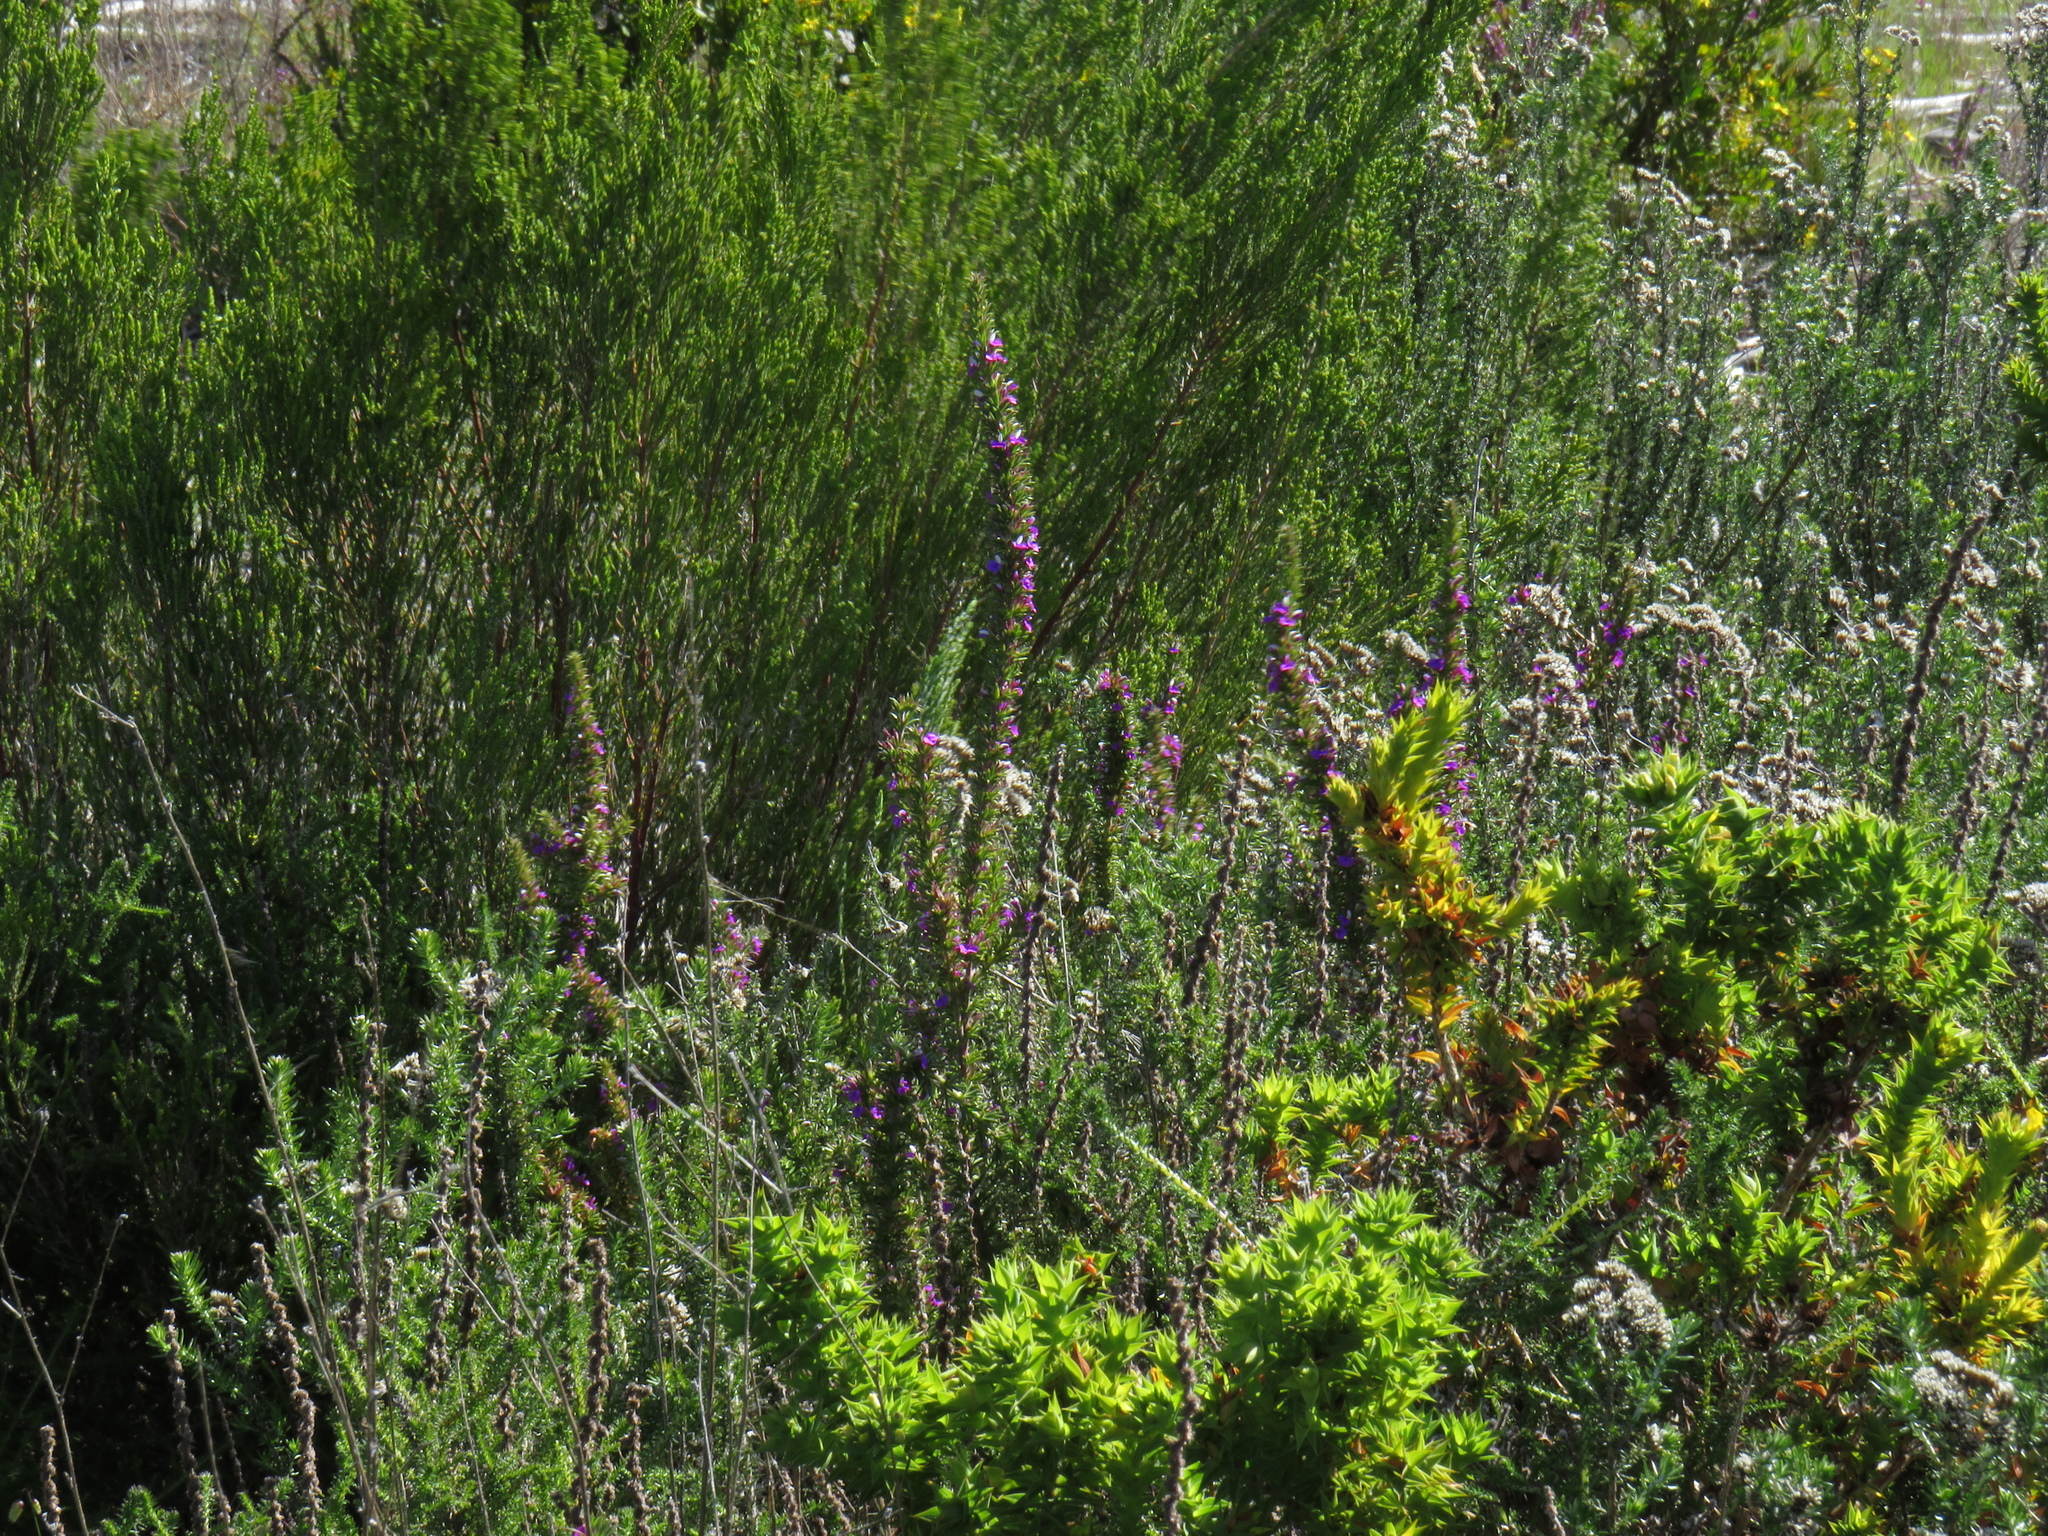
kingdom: Plantae
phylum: Tracheophyta
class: Magnoliopsida
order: Fabales
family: Polygalaceae
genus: Muraltia
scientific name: Muraltia heisteria
